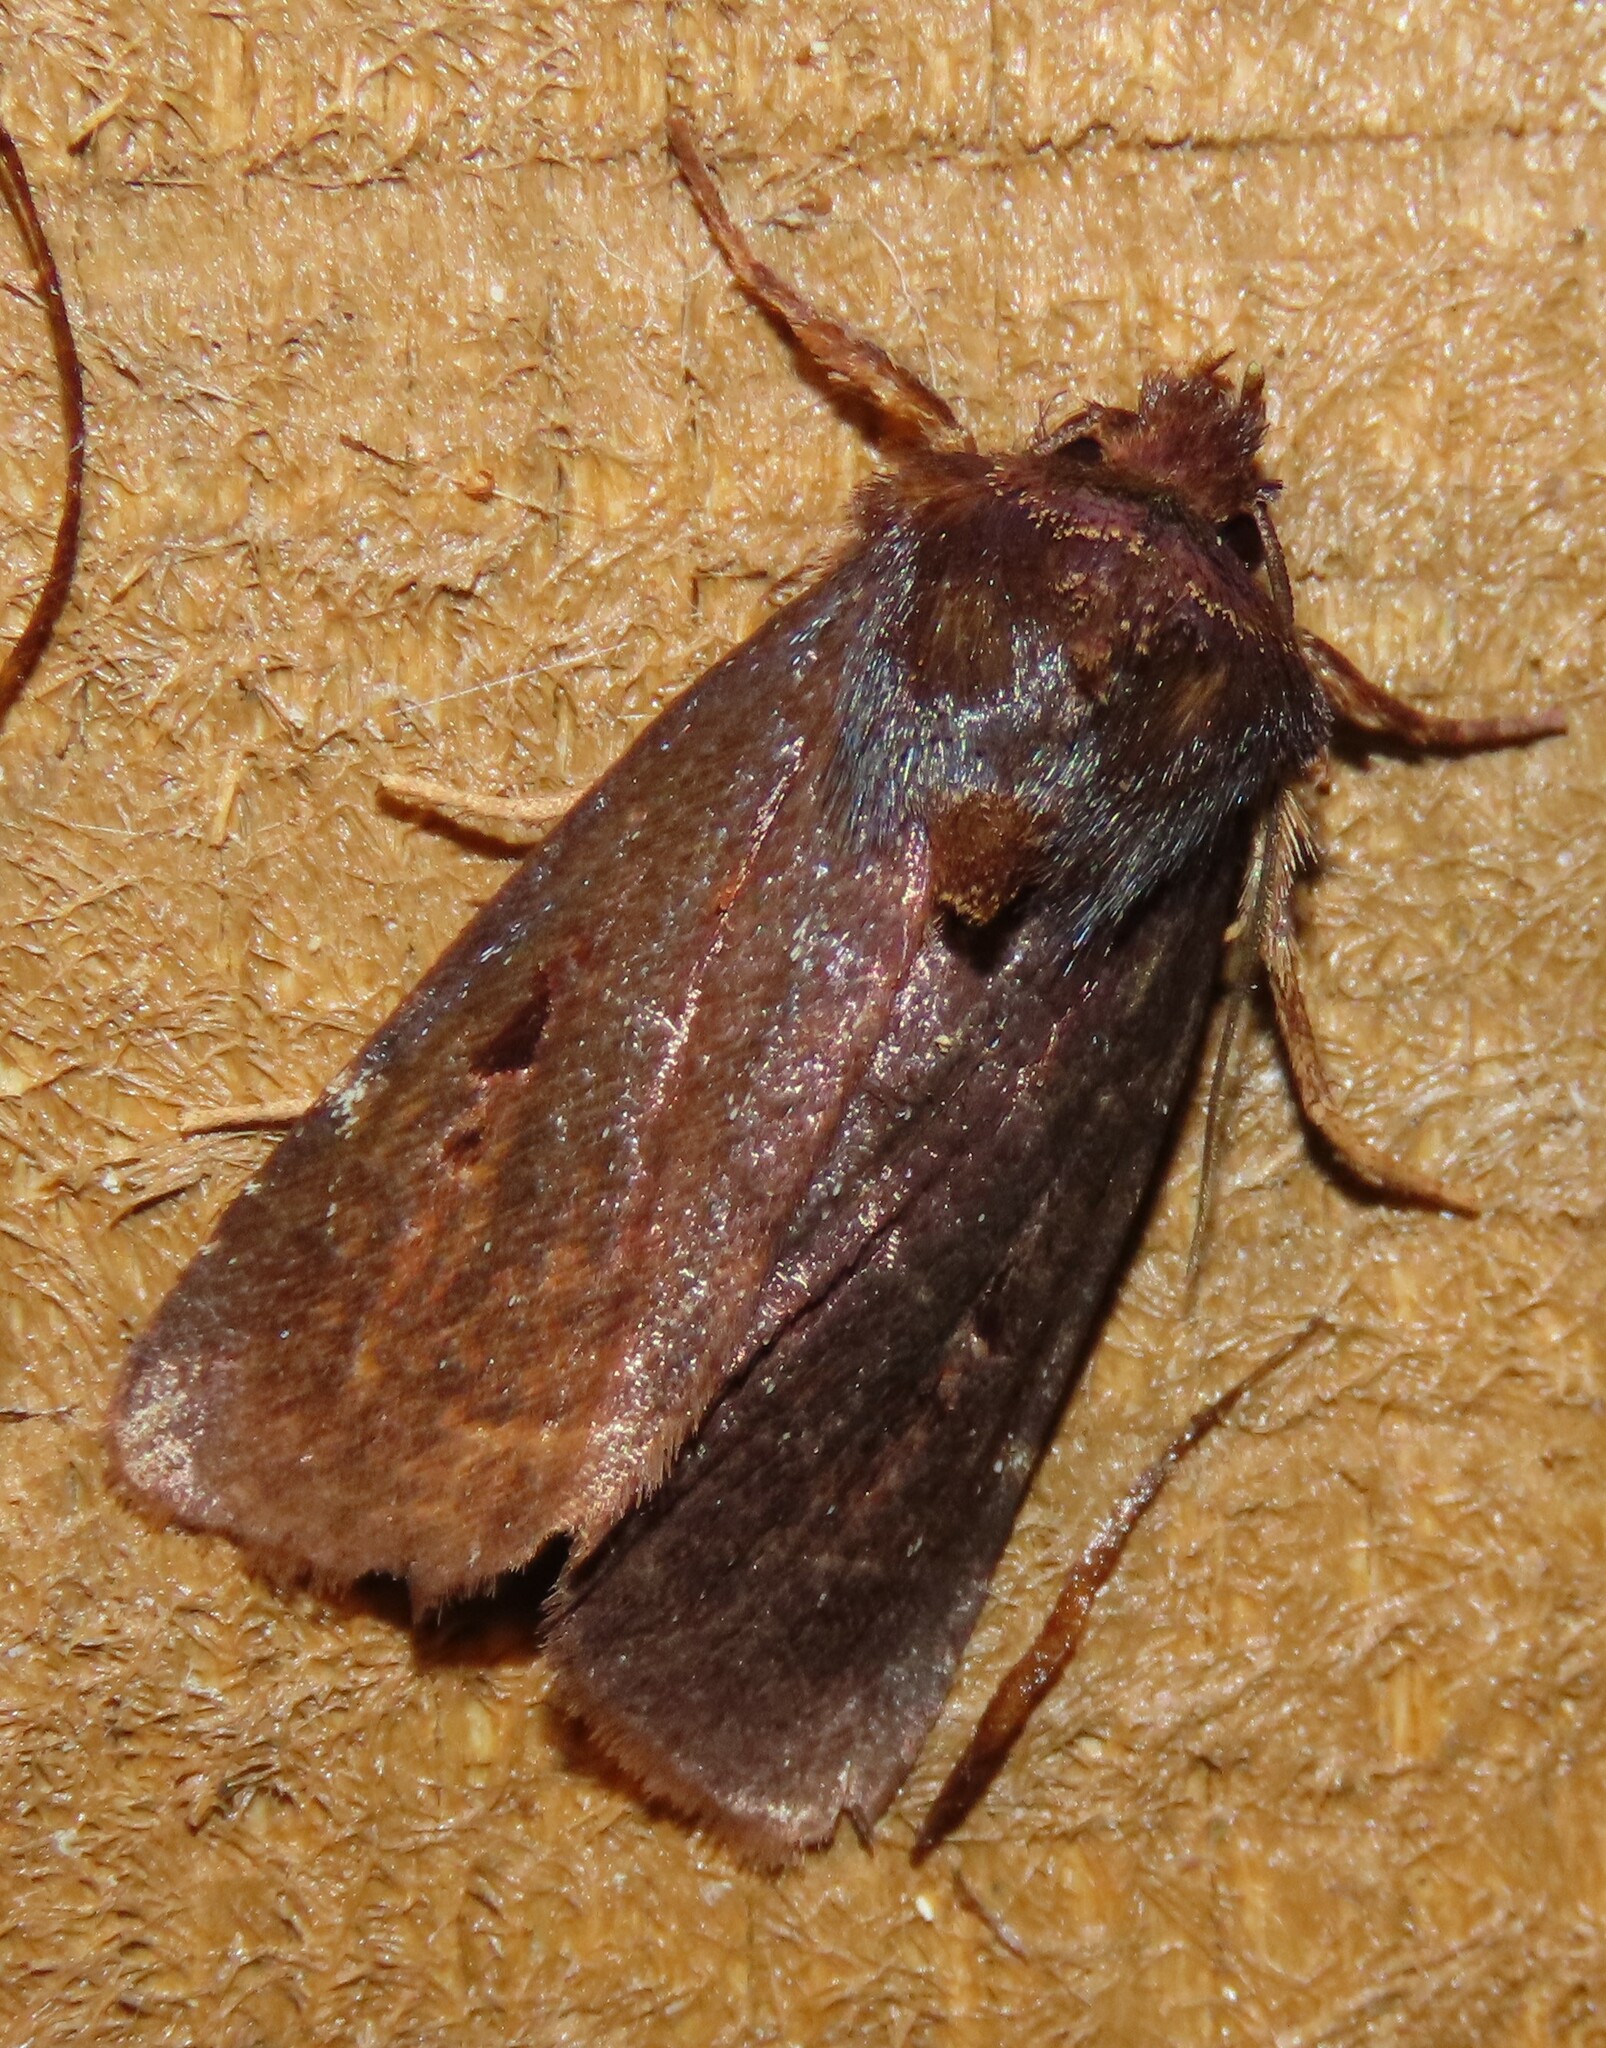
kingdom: Animalia
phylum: Arthropoda
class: Insecta
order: Lepidoptera
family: Noctuidae
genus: Austramathes
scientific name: Austramathes purpurea
